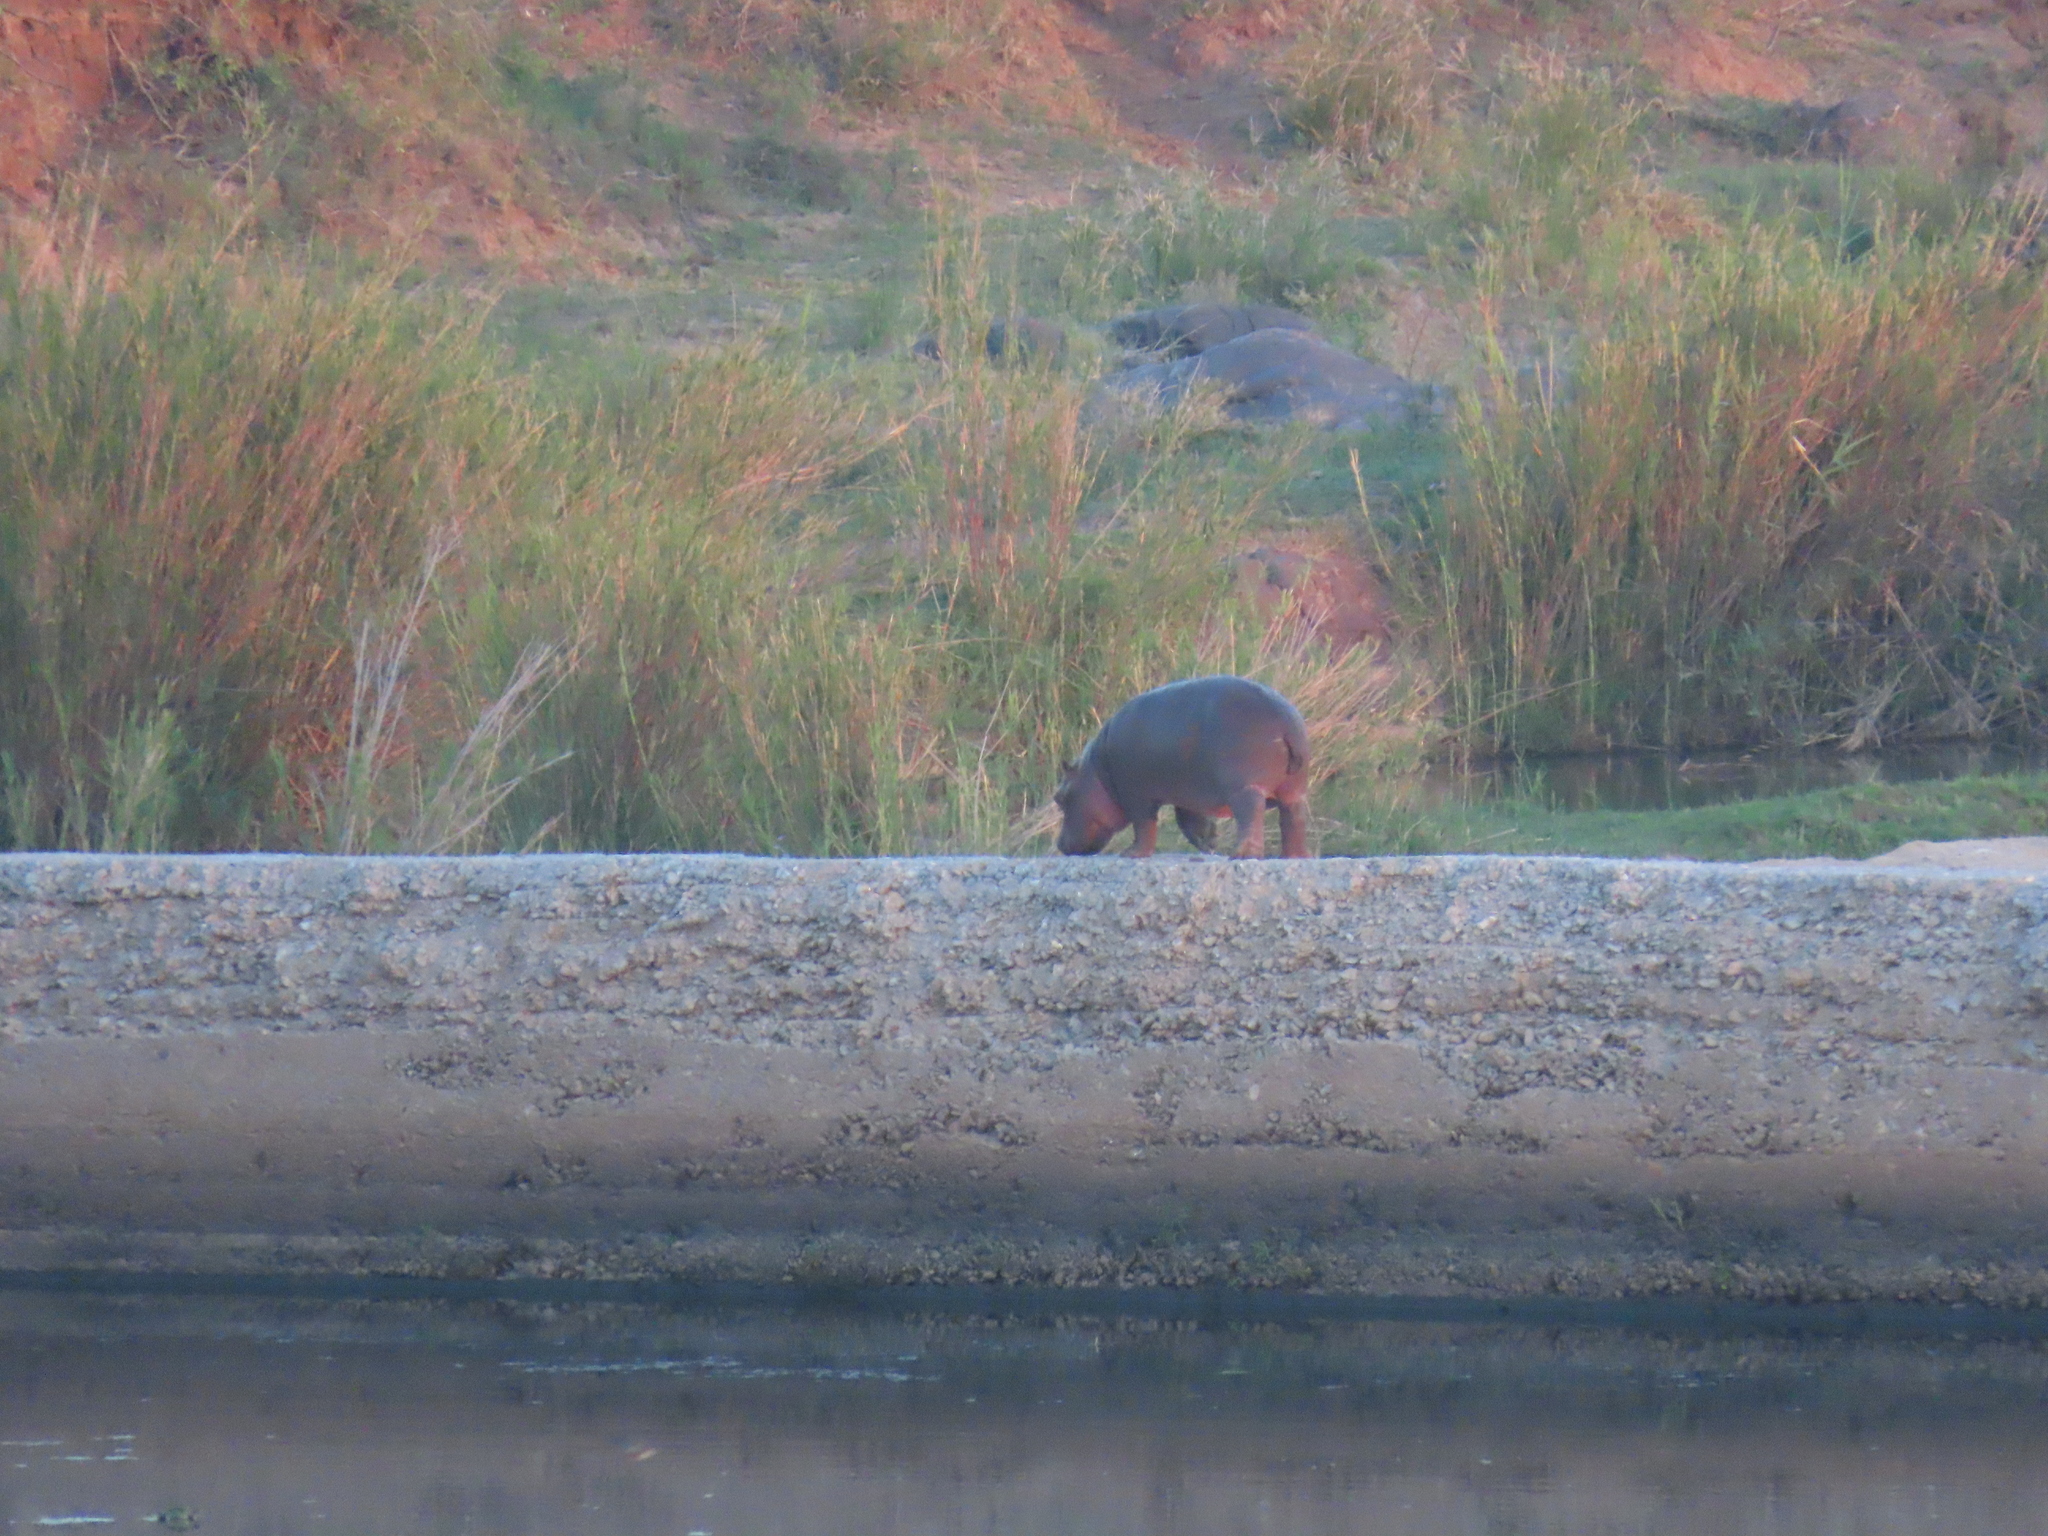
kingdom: Animalia
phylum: Chordata
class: Mammalia
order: Artiodactyla
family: Hippopotamidae
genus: Hippopotamus
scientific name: Hippopotamus amphibius
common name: Common hippopotamus
